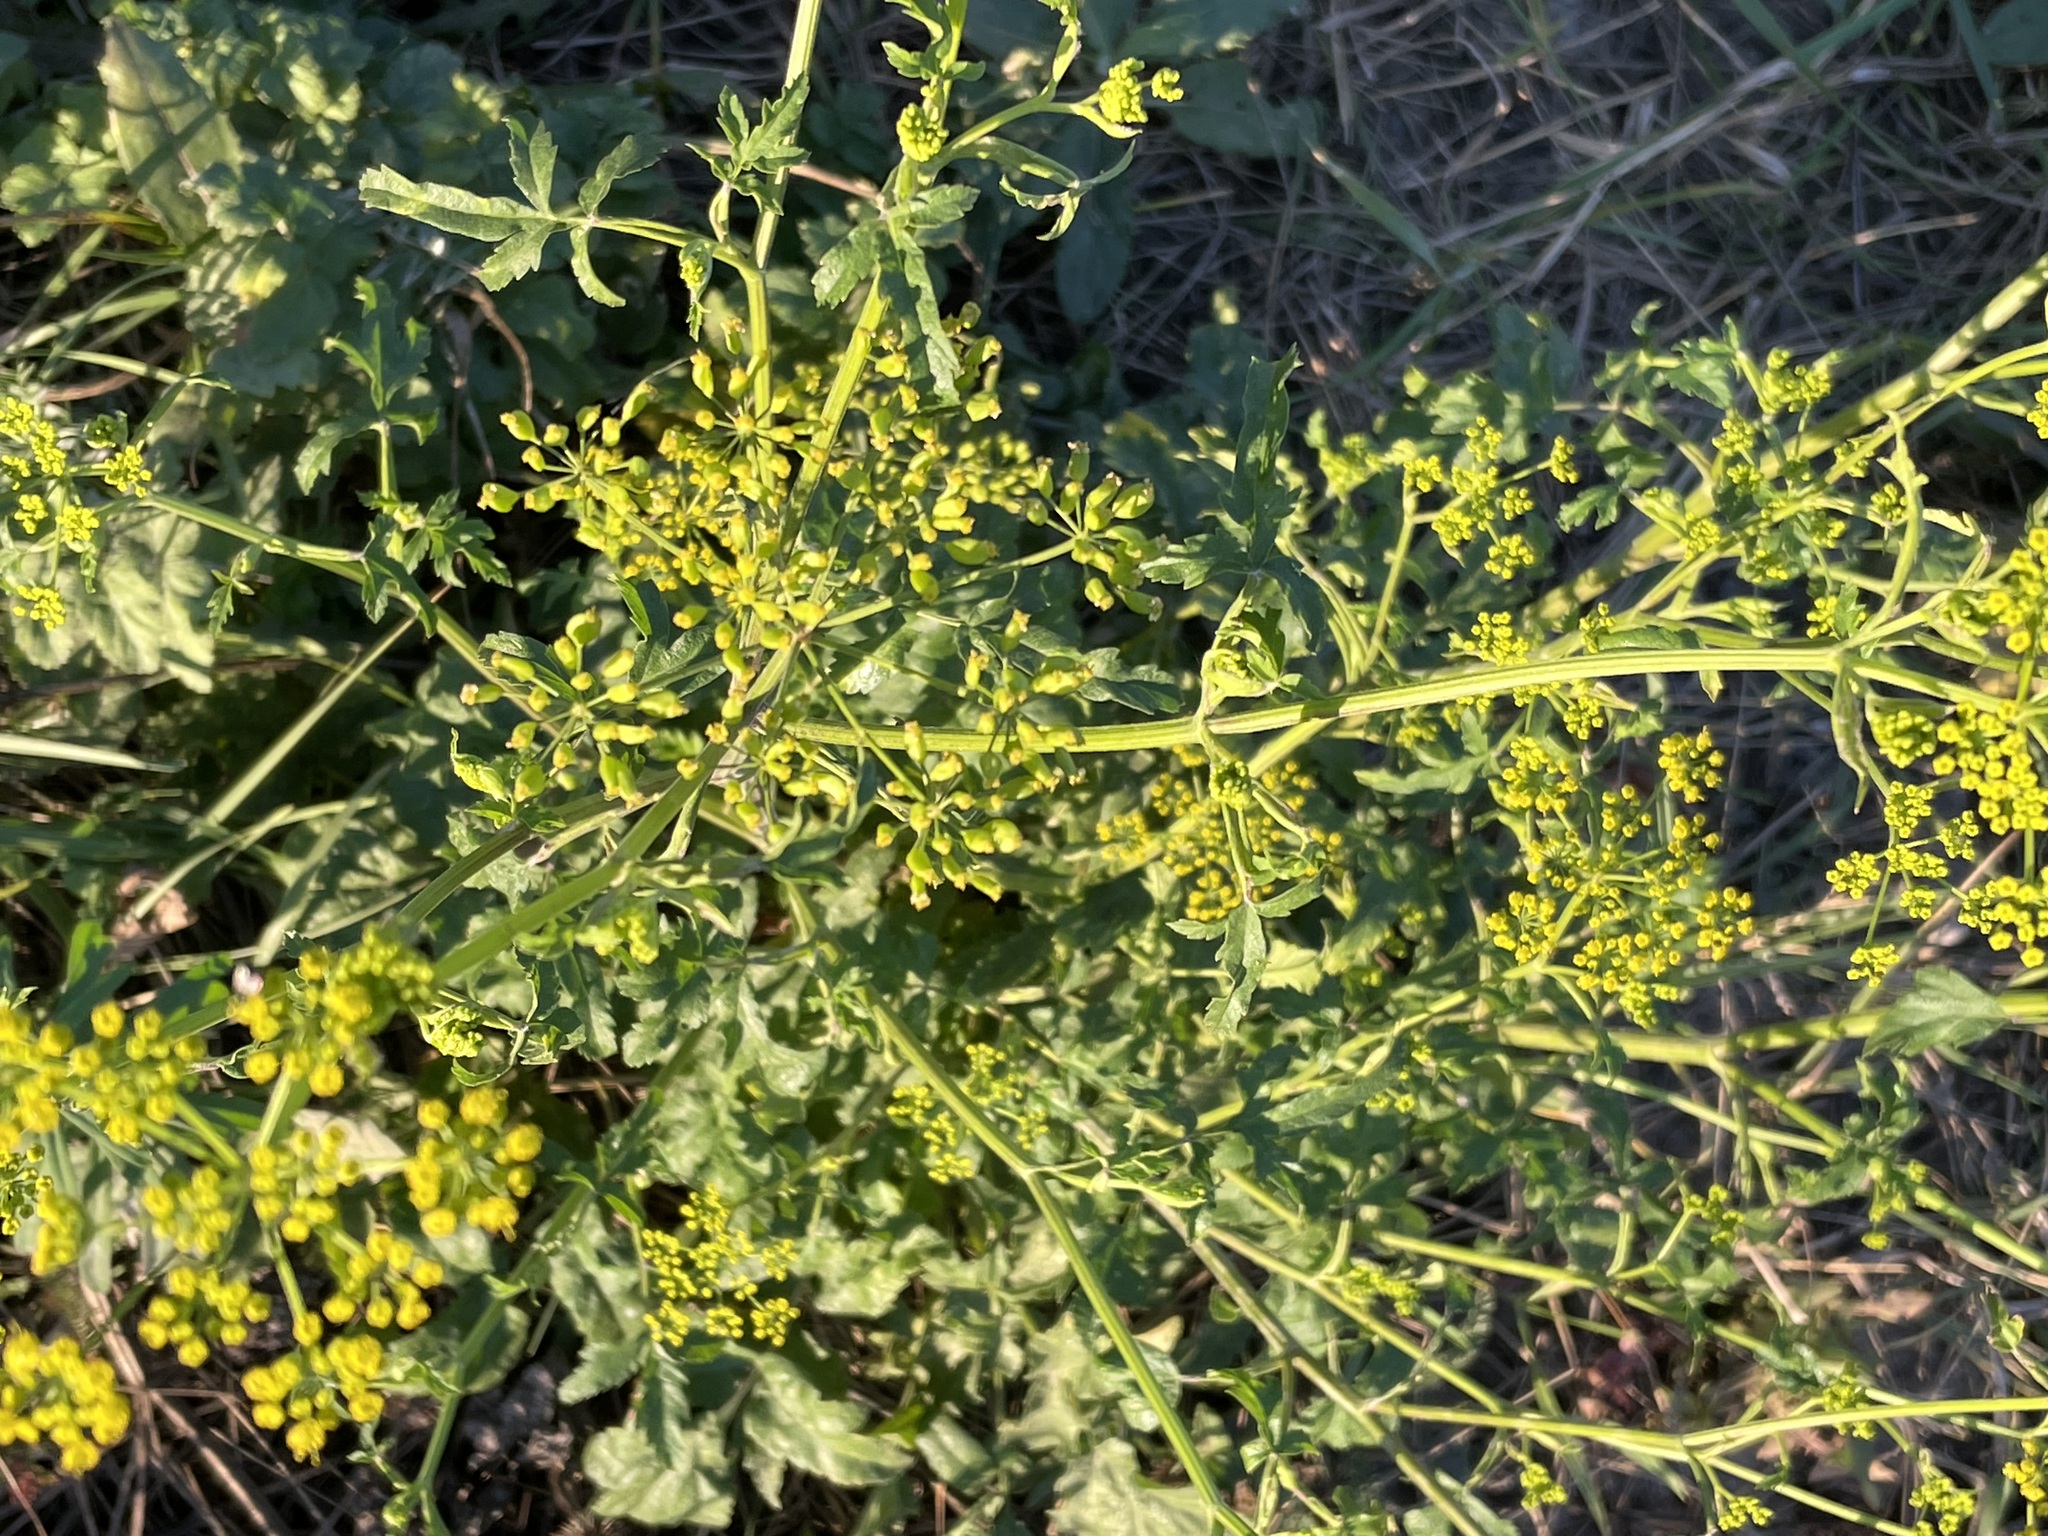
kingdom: Plantae
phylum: Tracheophyta
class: Magnoliopsida
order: Apiales
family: Apiaceae
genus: Pastinaca
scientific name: Pastinaca sativa
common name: Wild parsnip
